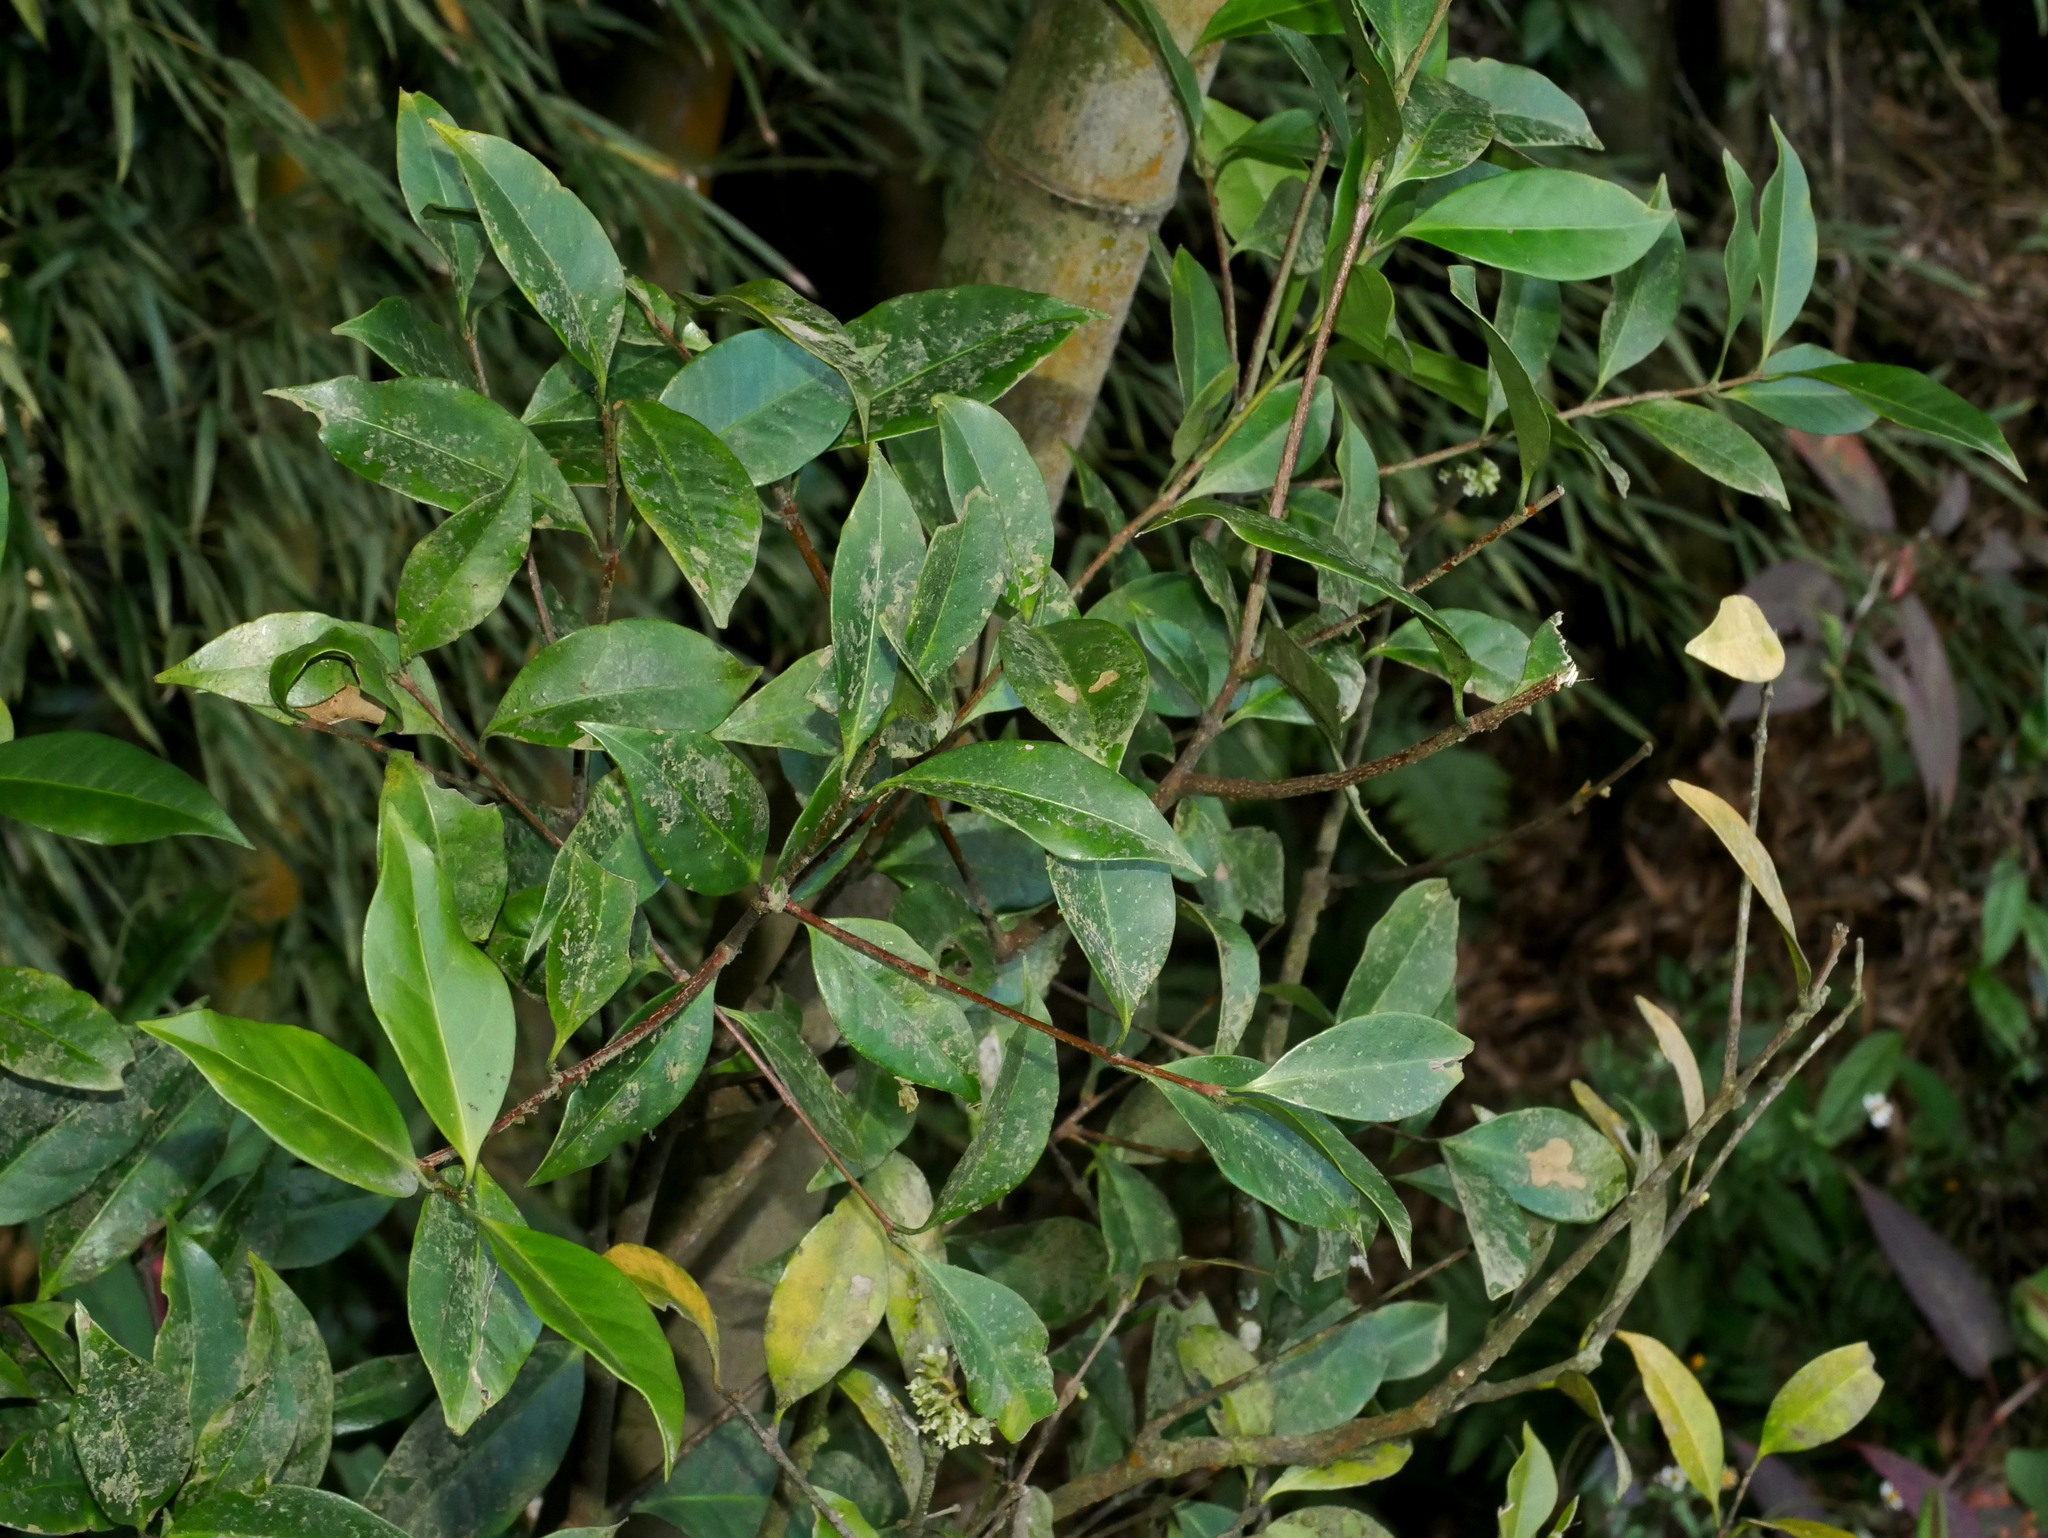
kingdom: Plantae
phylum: Tracheophyta
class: Magnoliopsida
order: Celastrales
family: Celastraceae
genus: Microtropis
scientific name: Microtropis yunnanensis
